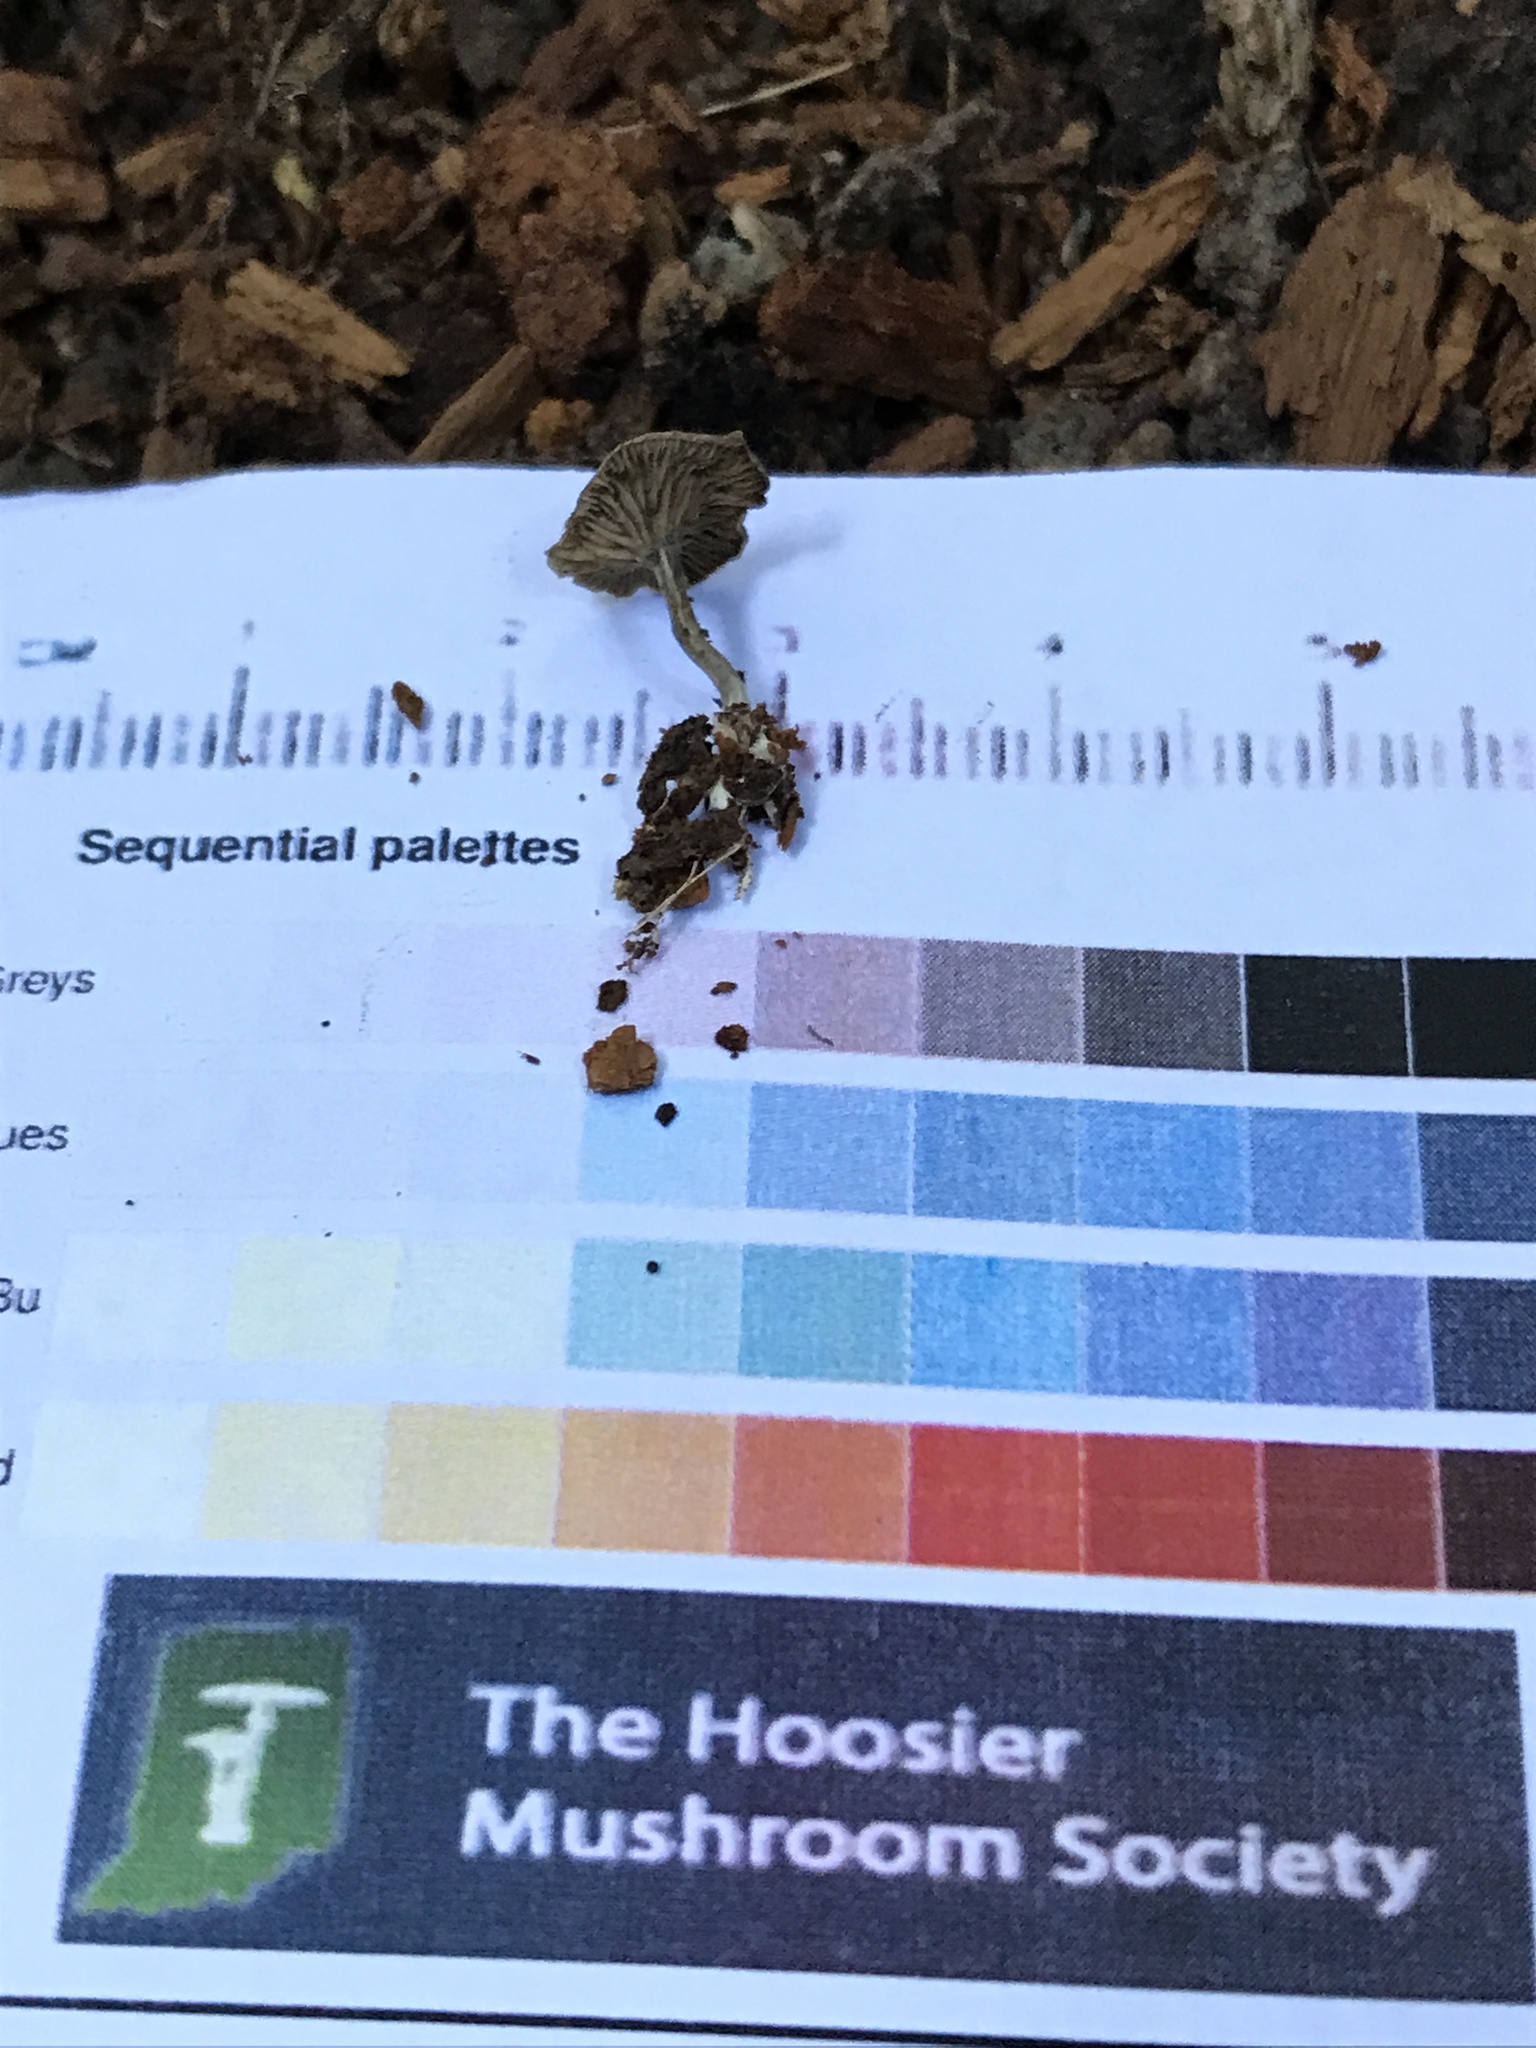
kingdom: Fungi
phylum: Basidiomycota
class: Agaricomycetes
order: Agaricales
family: Tricholomataceae
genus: Leucocybe
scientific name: Leucocybe candicans
